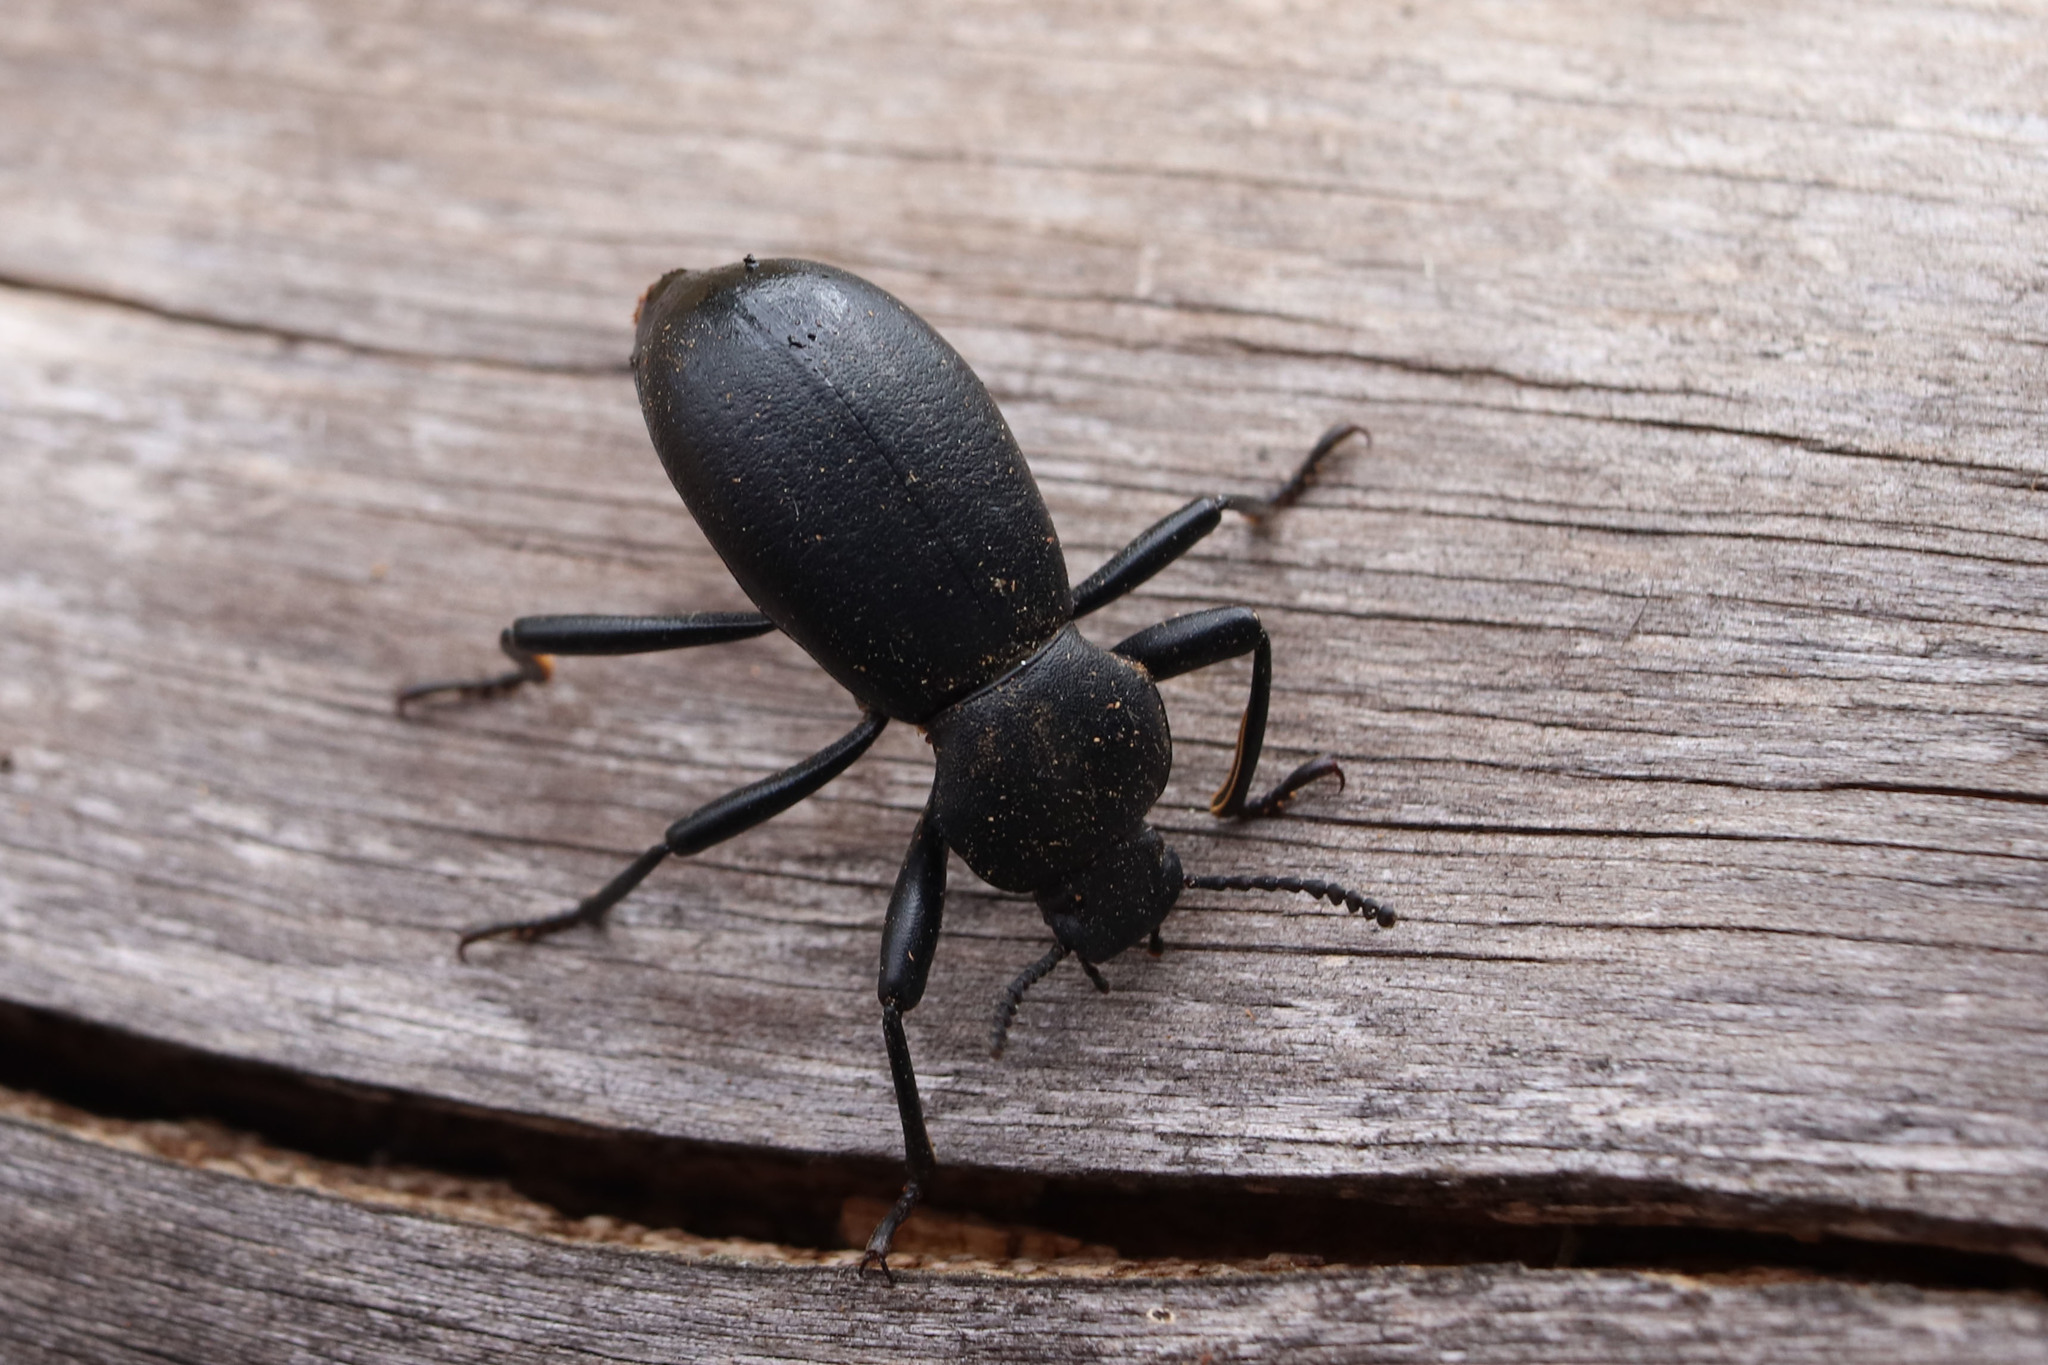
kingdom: Animalia
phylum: Arthropoda
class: Insecta
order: Coleoptera
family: Tenebrionidae
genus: Coelocnemis
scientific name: Coelocnemis dilaticollis
